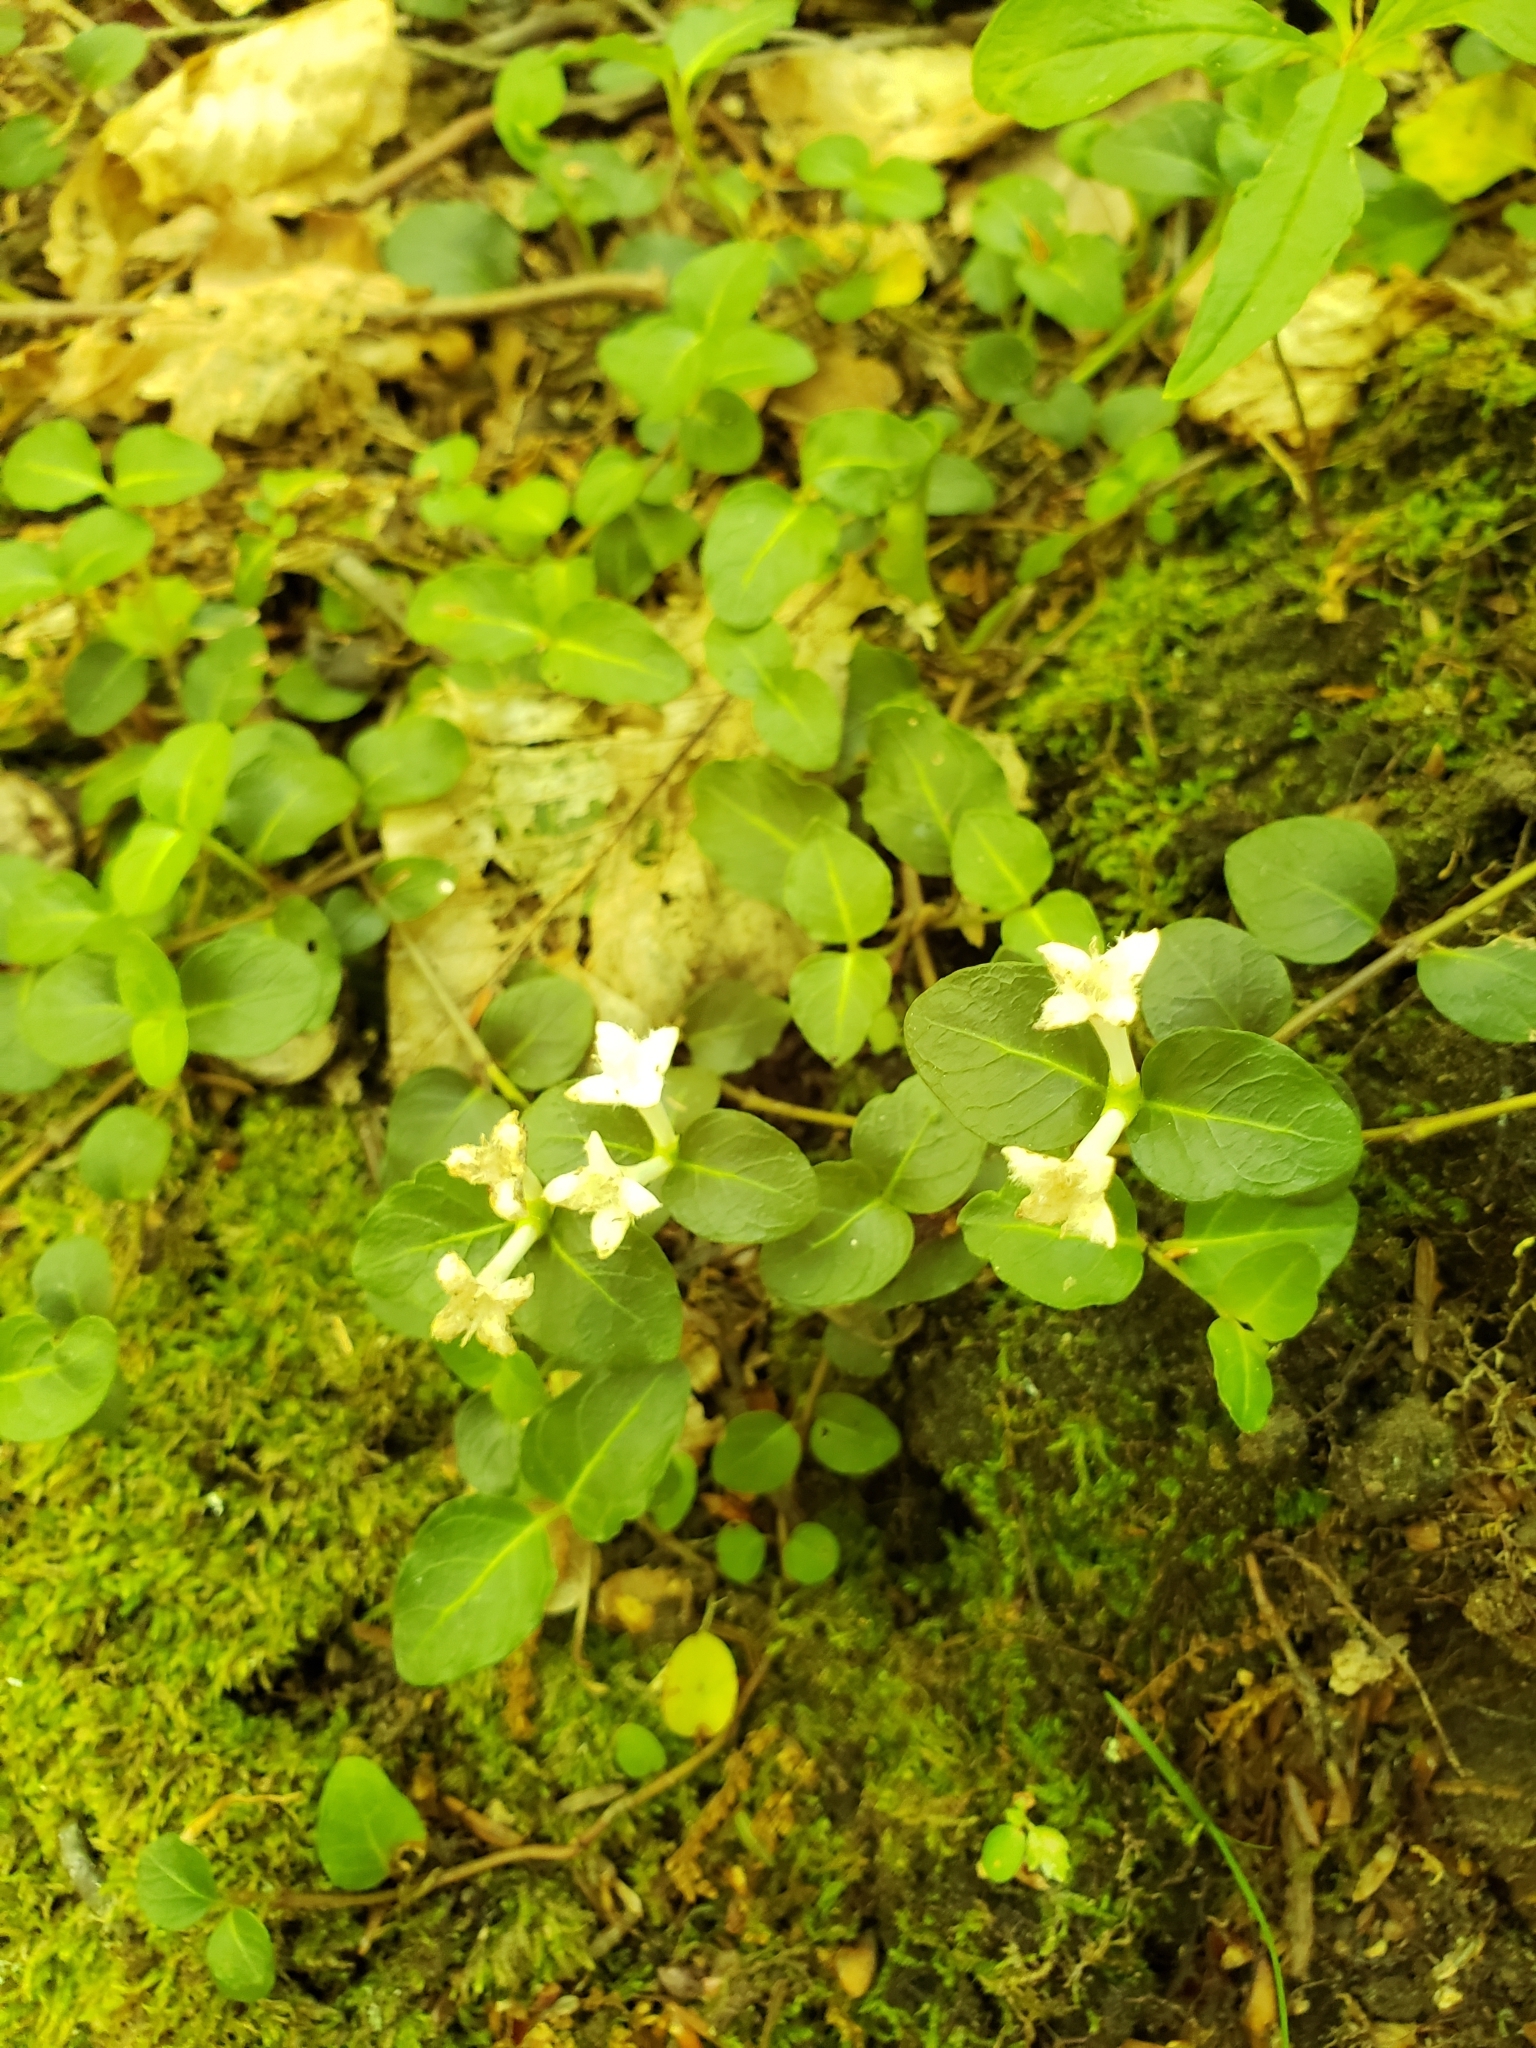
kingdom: Plantae
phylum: Tracheophyta
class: Magnoliopsida
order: Gentianales
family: Rubiaceae
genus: Mitchella
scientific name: Mitchella repens
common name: Partridge-berry
